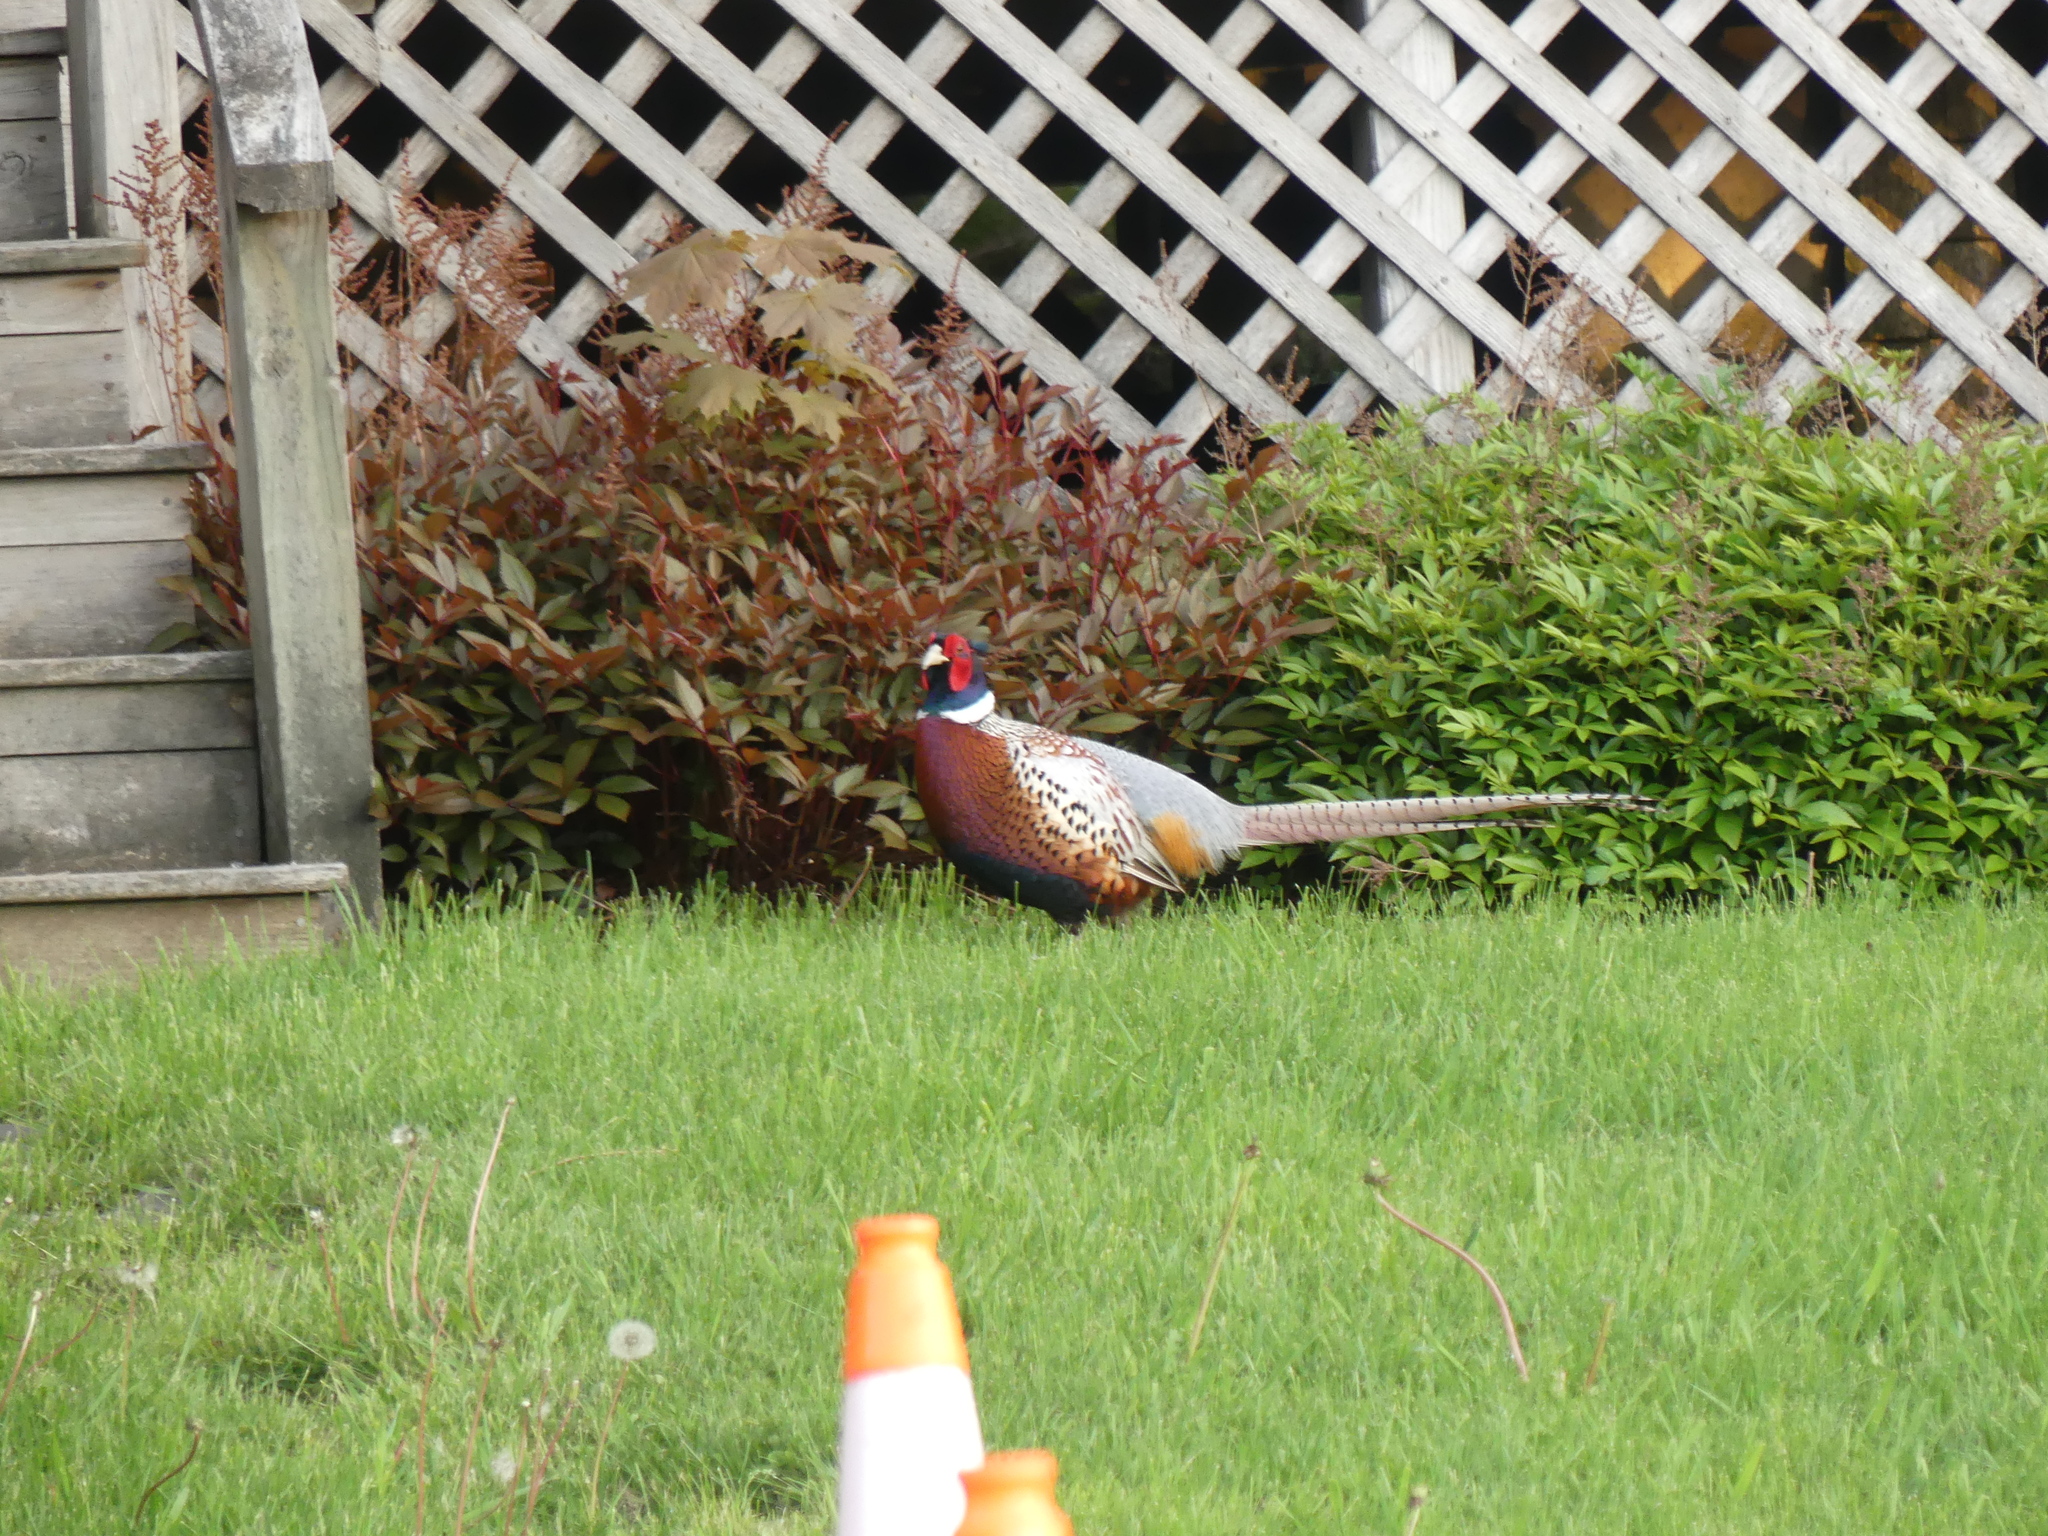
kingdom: Animalia
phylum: Chordata
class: Aves
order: Galliformes
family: Phasianidae
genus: Phasianus
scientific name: Phasianus colchicus
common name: Common pheasant
